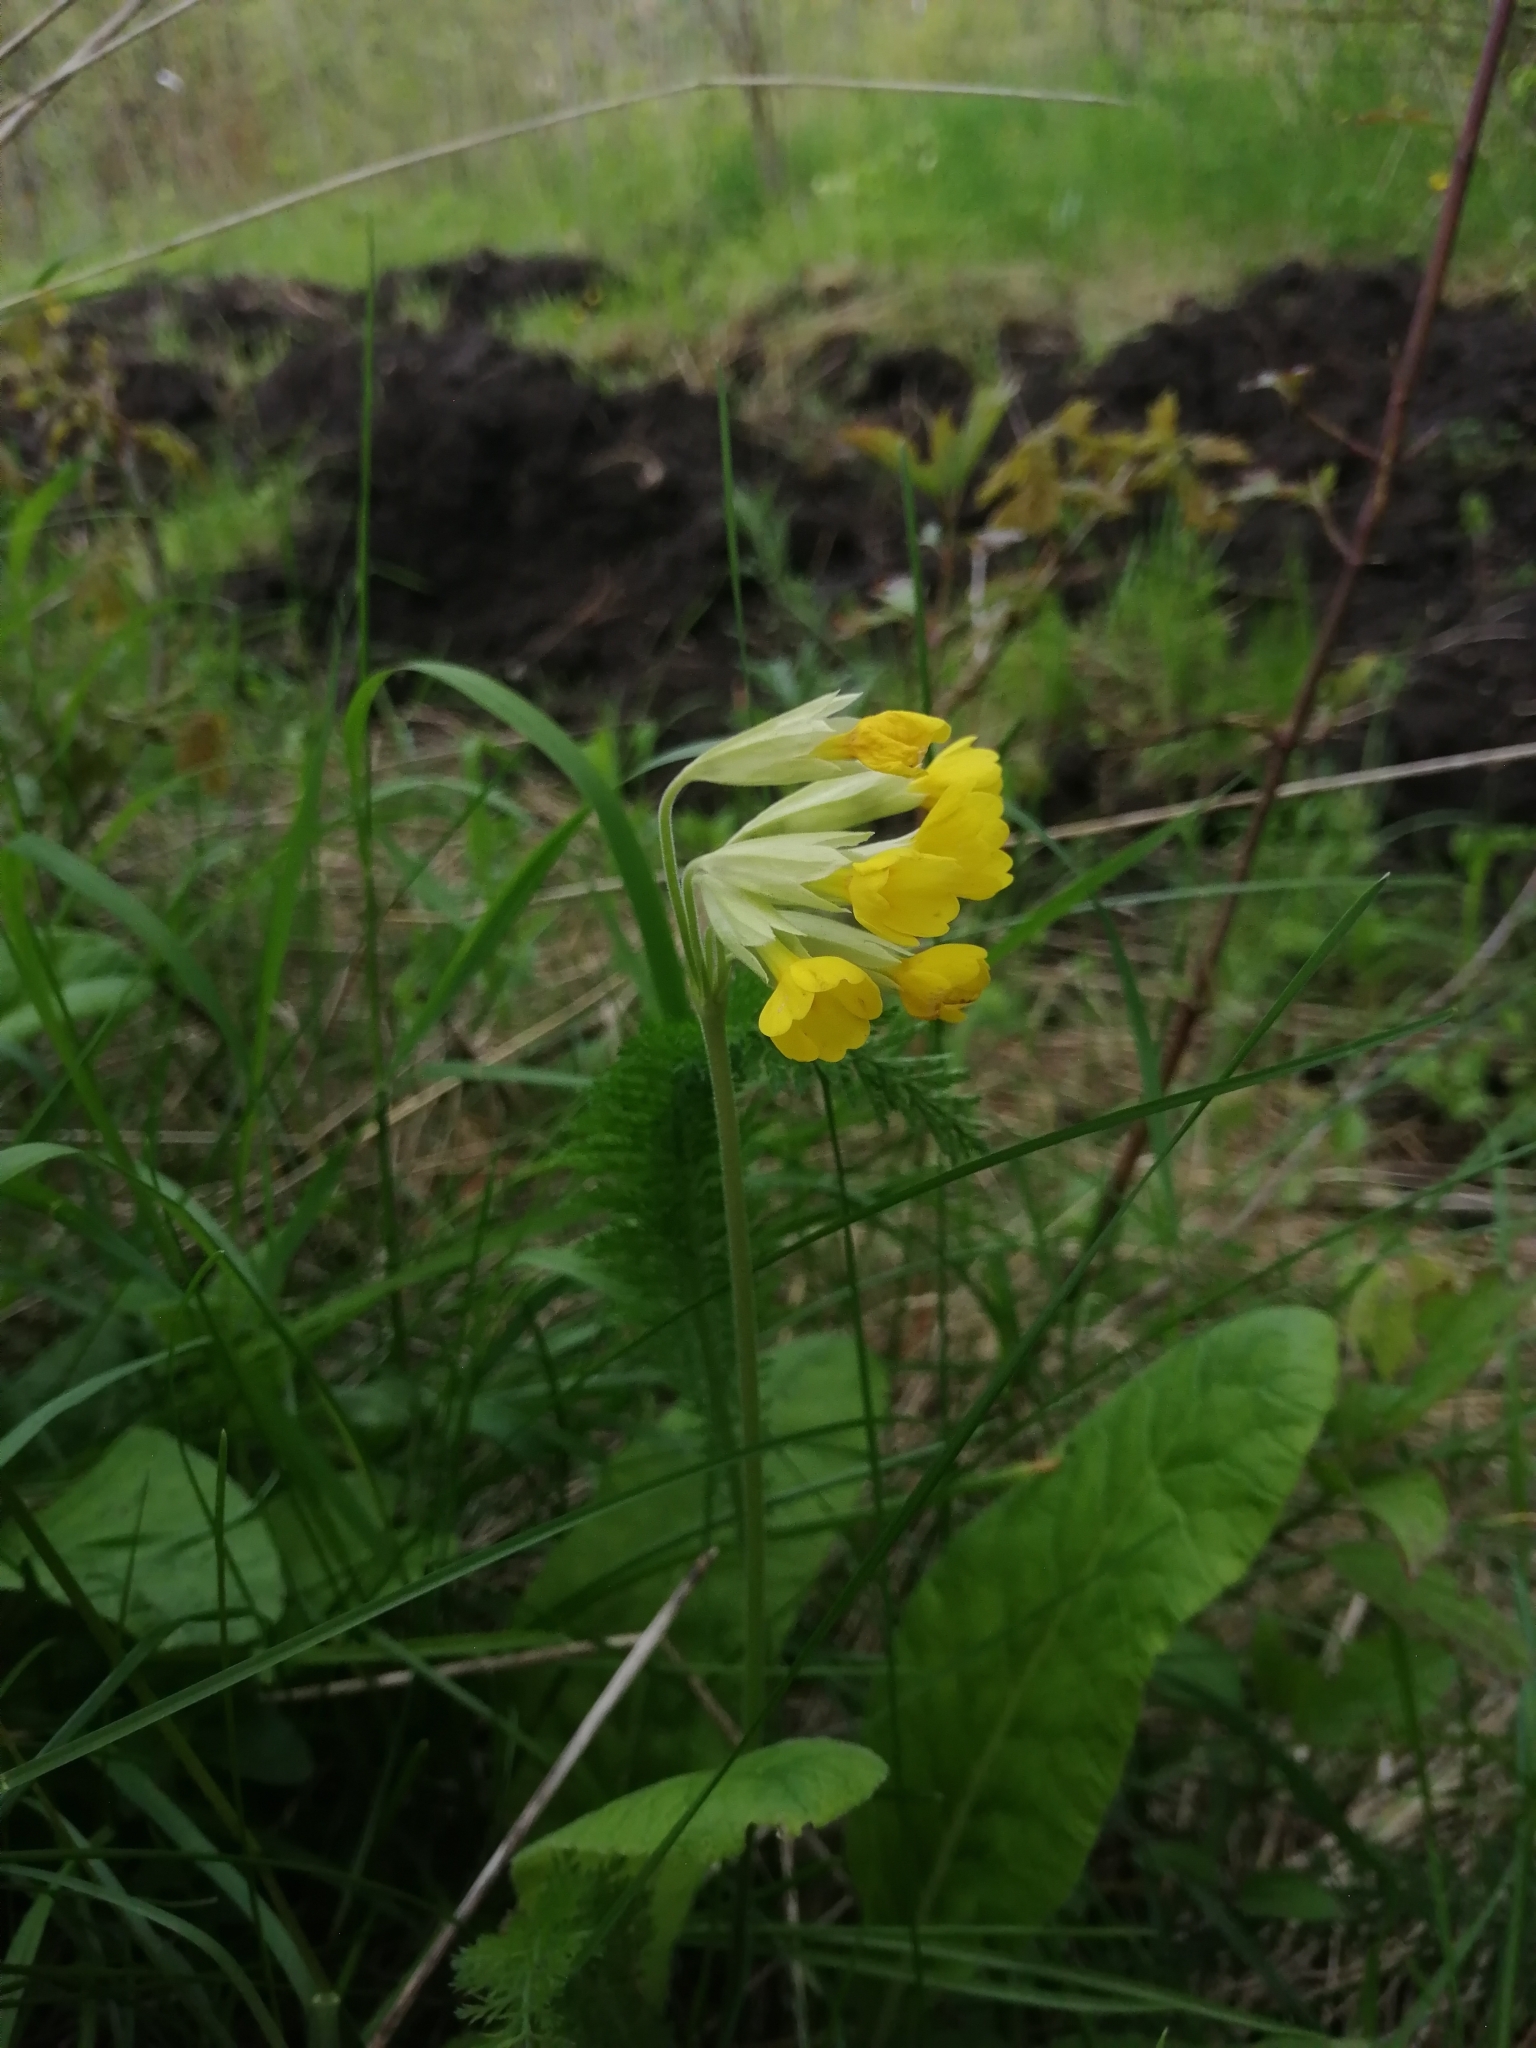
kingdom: Plantae
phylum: Tracheophyta
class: Magnoliopsida
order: Ericales
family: Primulaceae
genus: Primula
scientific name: Primula veris
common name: Cowslip
